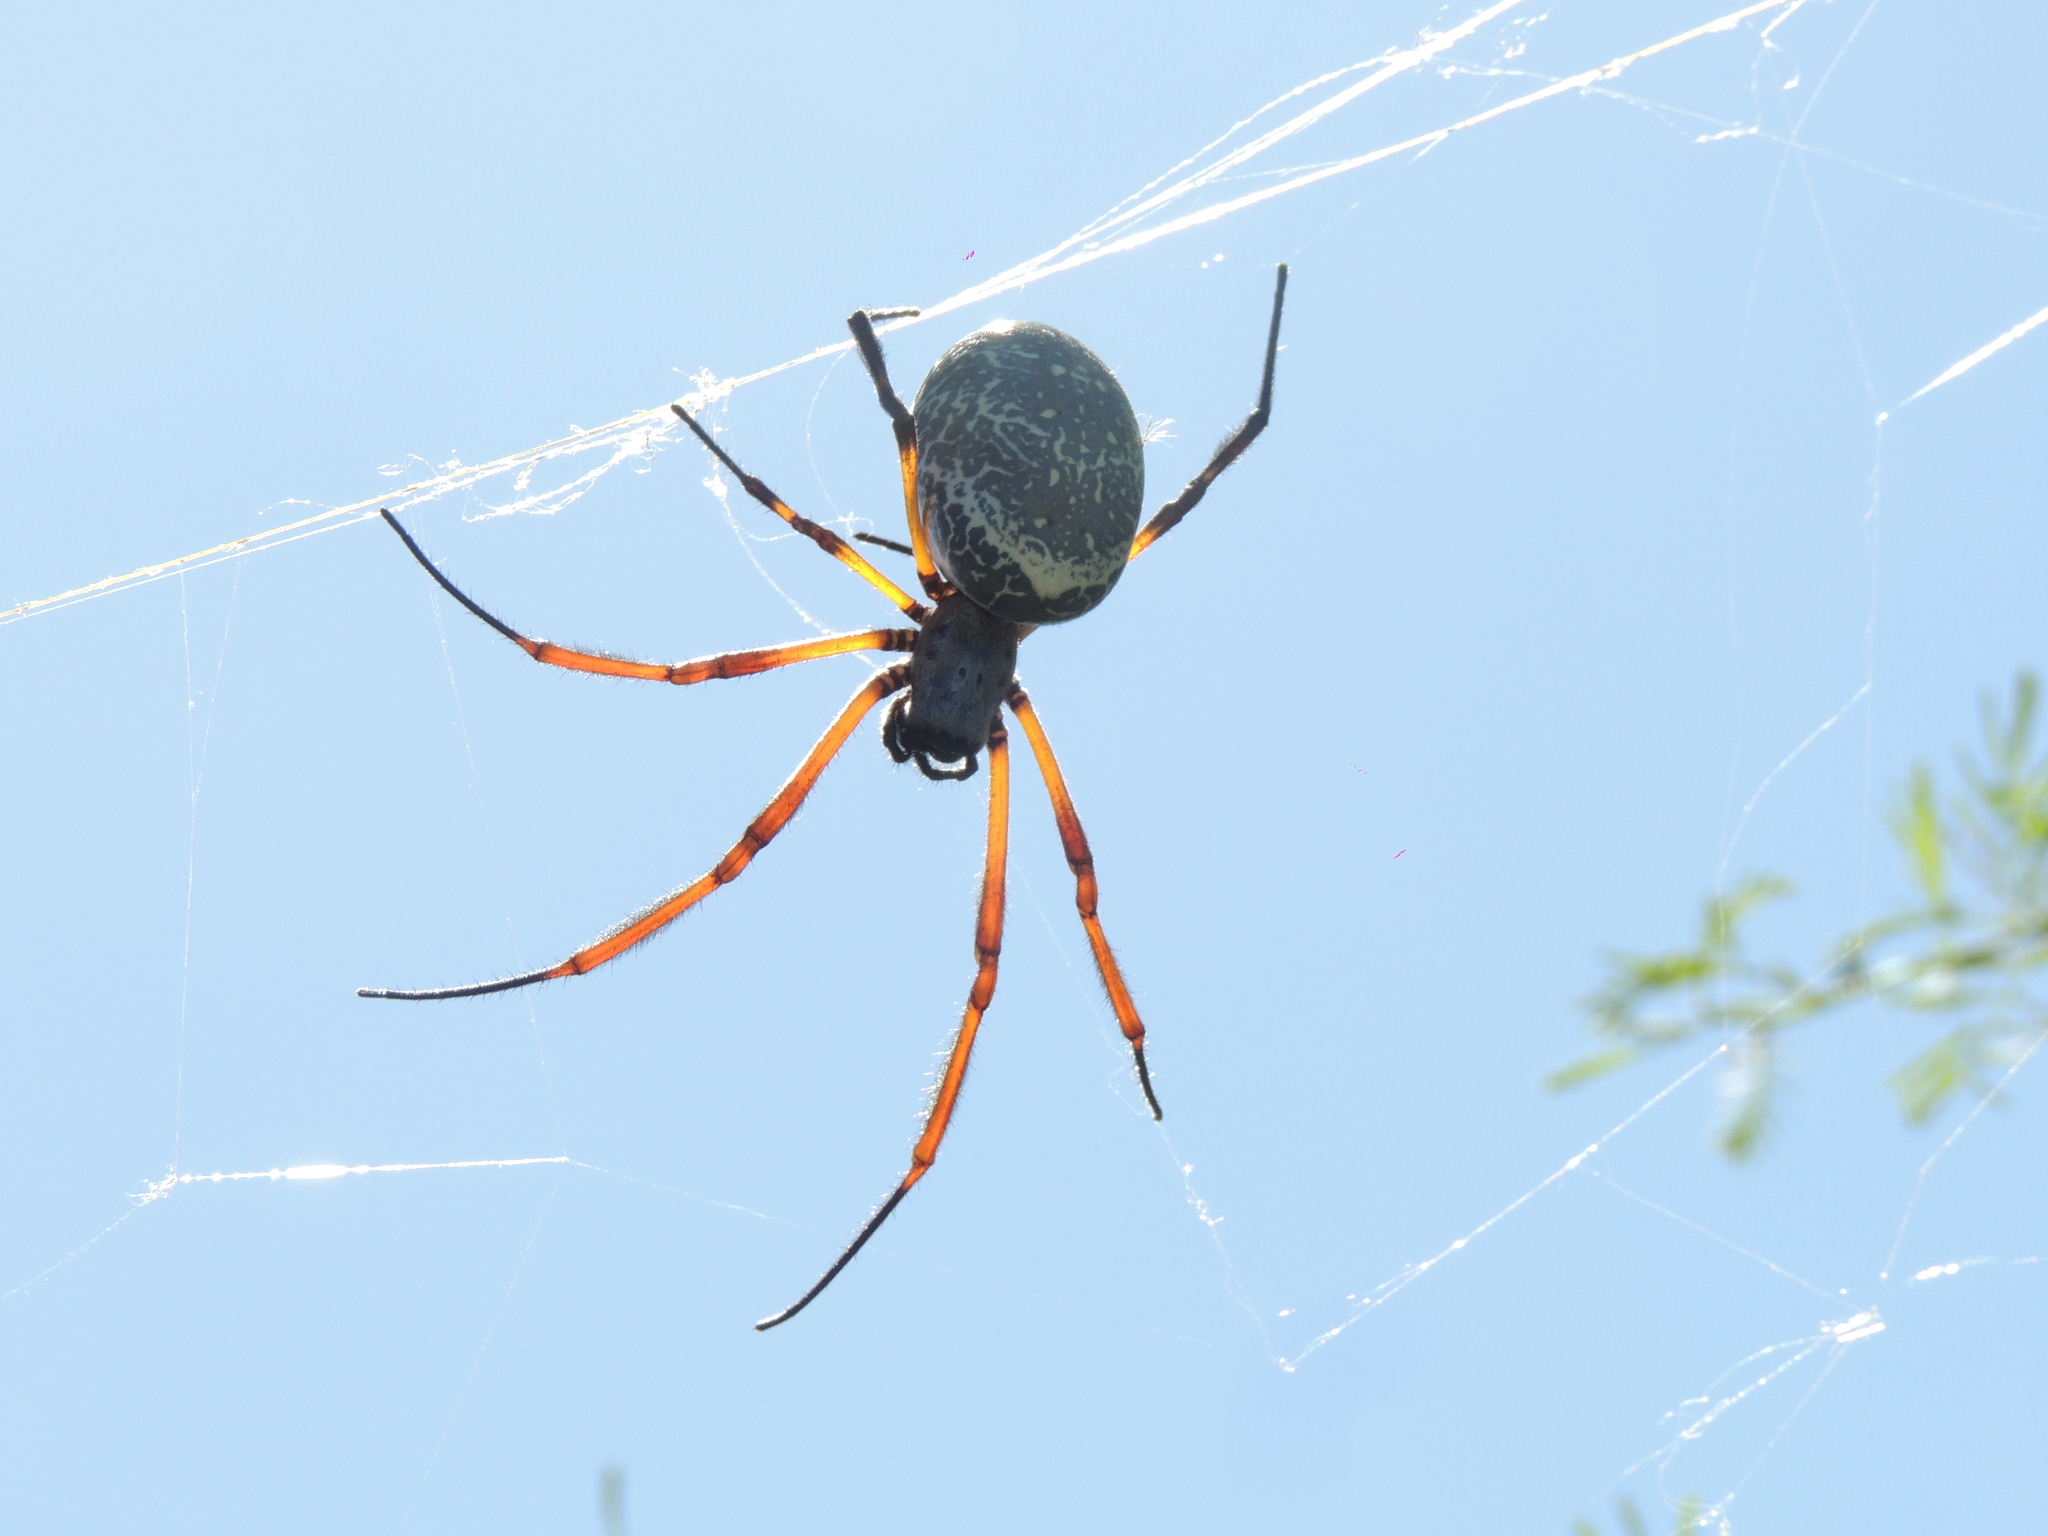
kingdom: Animalia
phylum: Arthropoda
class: Arachnida
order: Araneae
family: Araneidae
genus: Trichonephila
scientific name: Trichonephila sexpunctata
